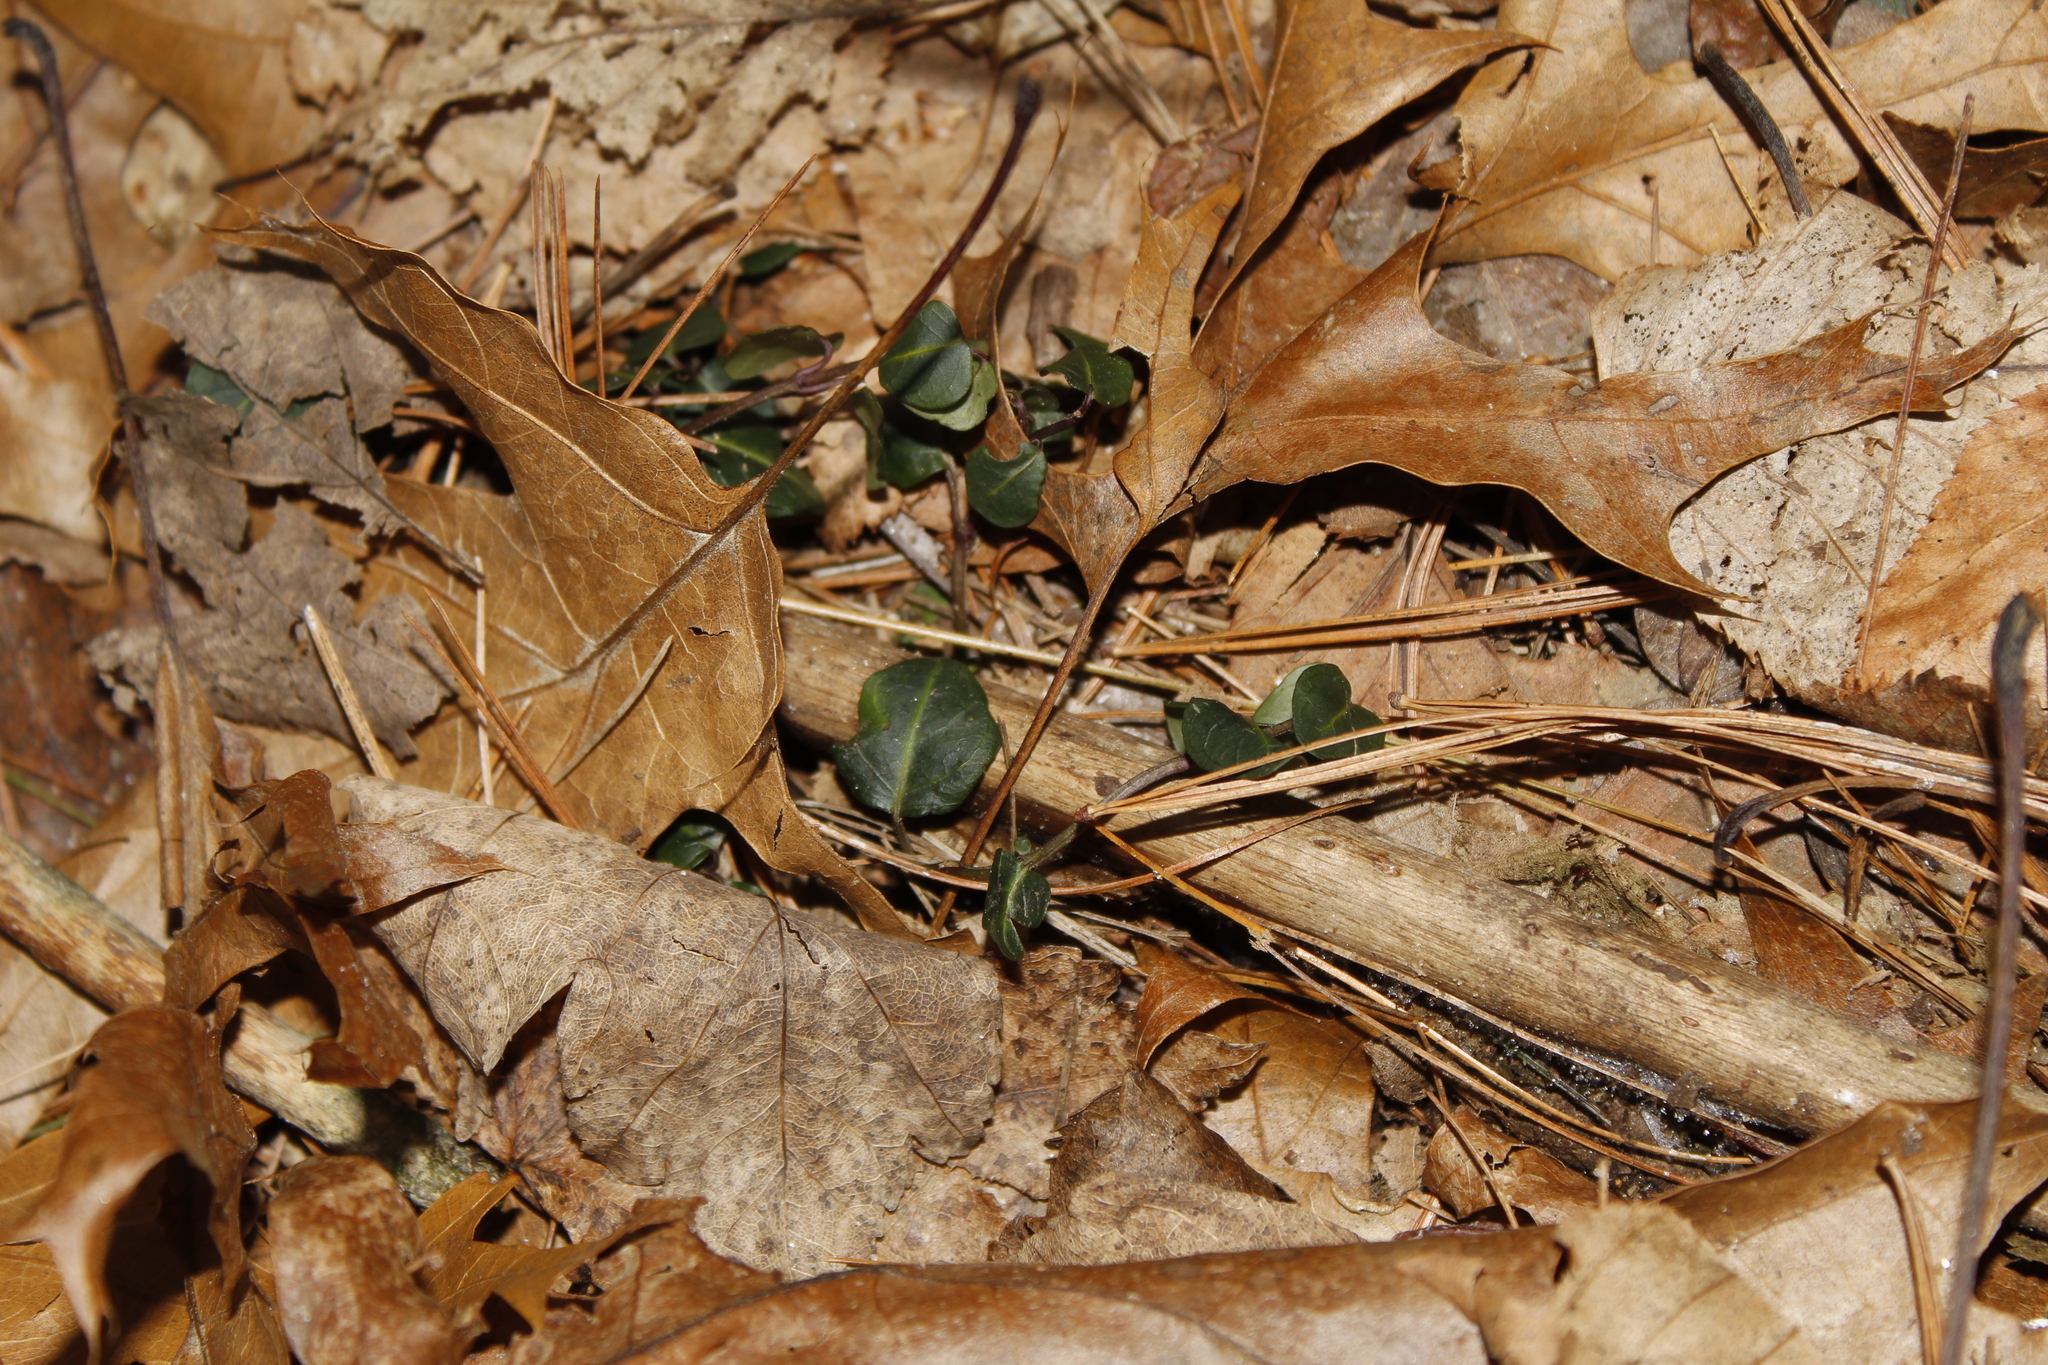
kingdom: Plantae
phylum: Tracheophyta
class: Magnoliopsida
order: Gentianales
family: Rubiaceae
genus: Mitchella
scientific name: Mitchella repens
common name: Partridge-berry
